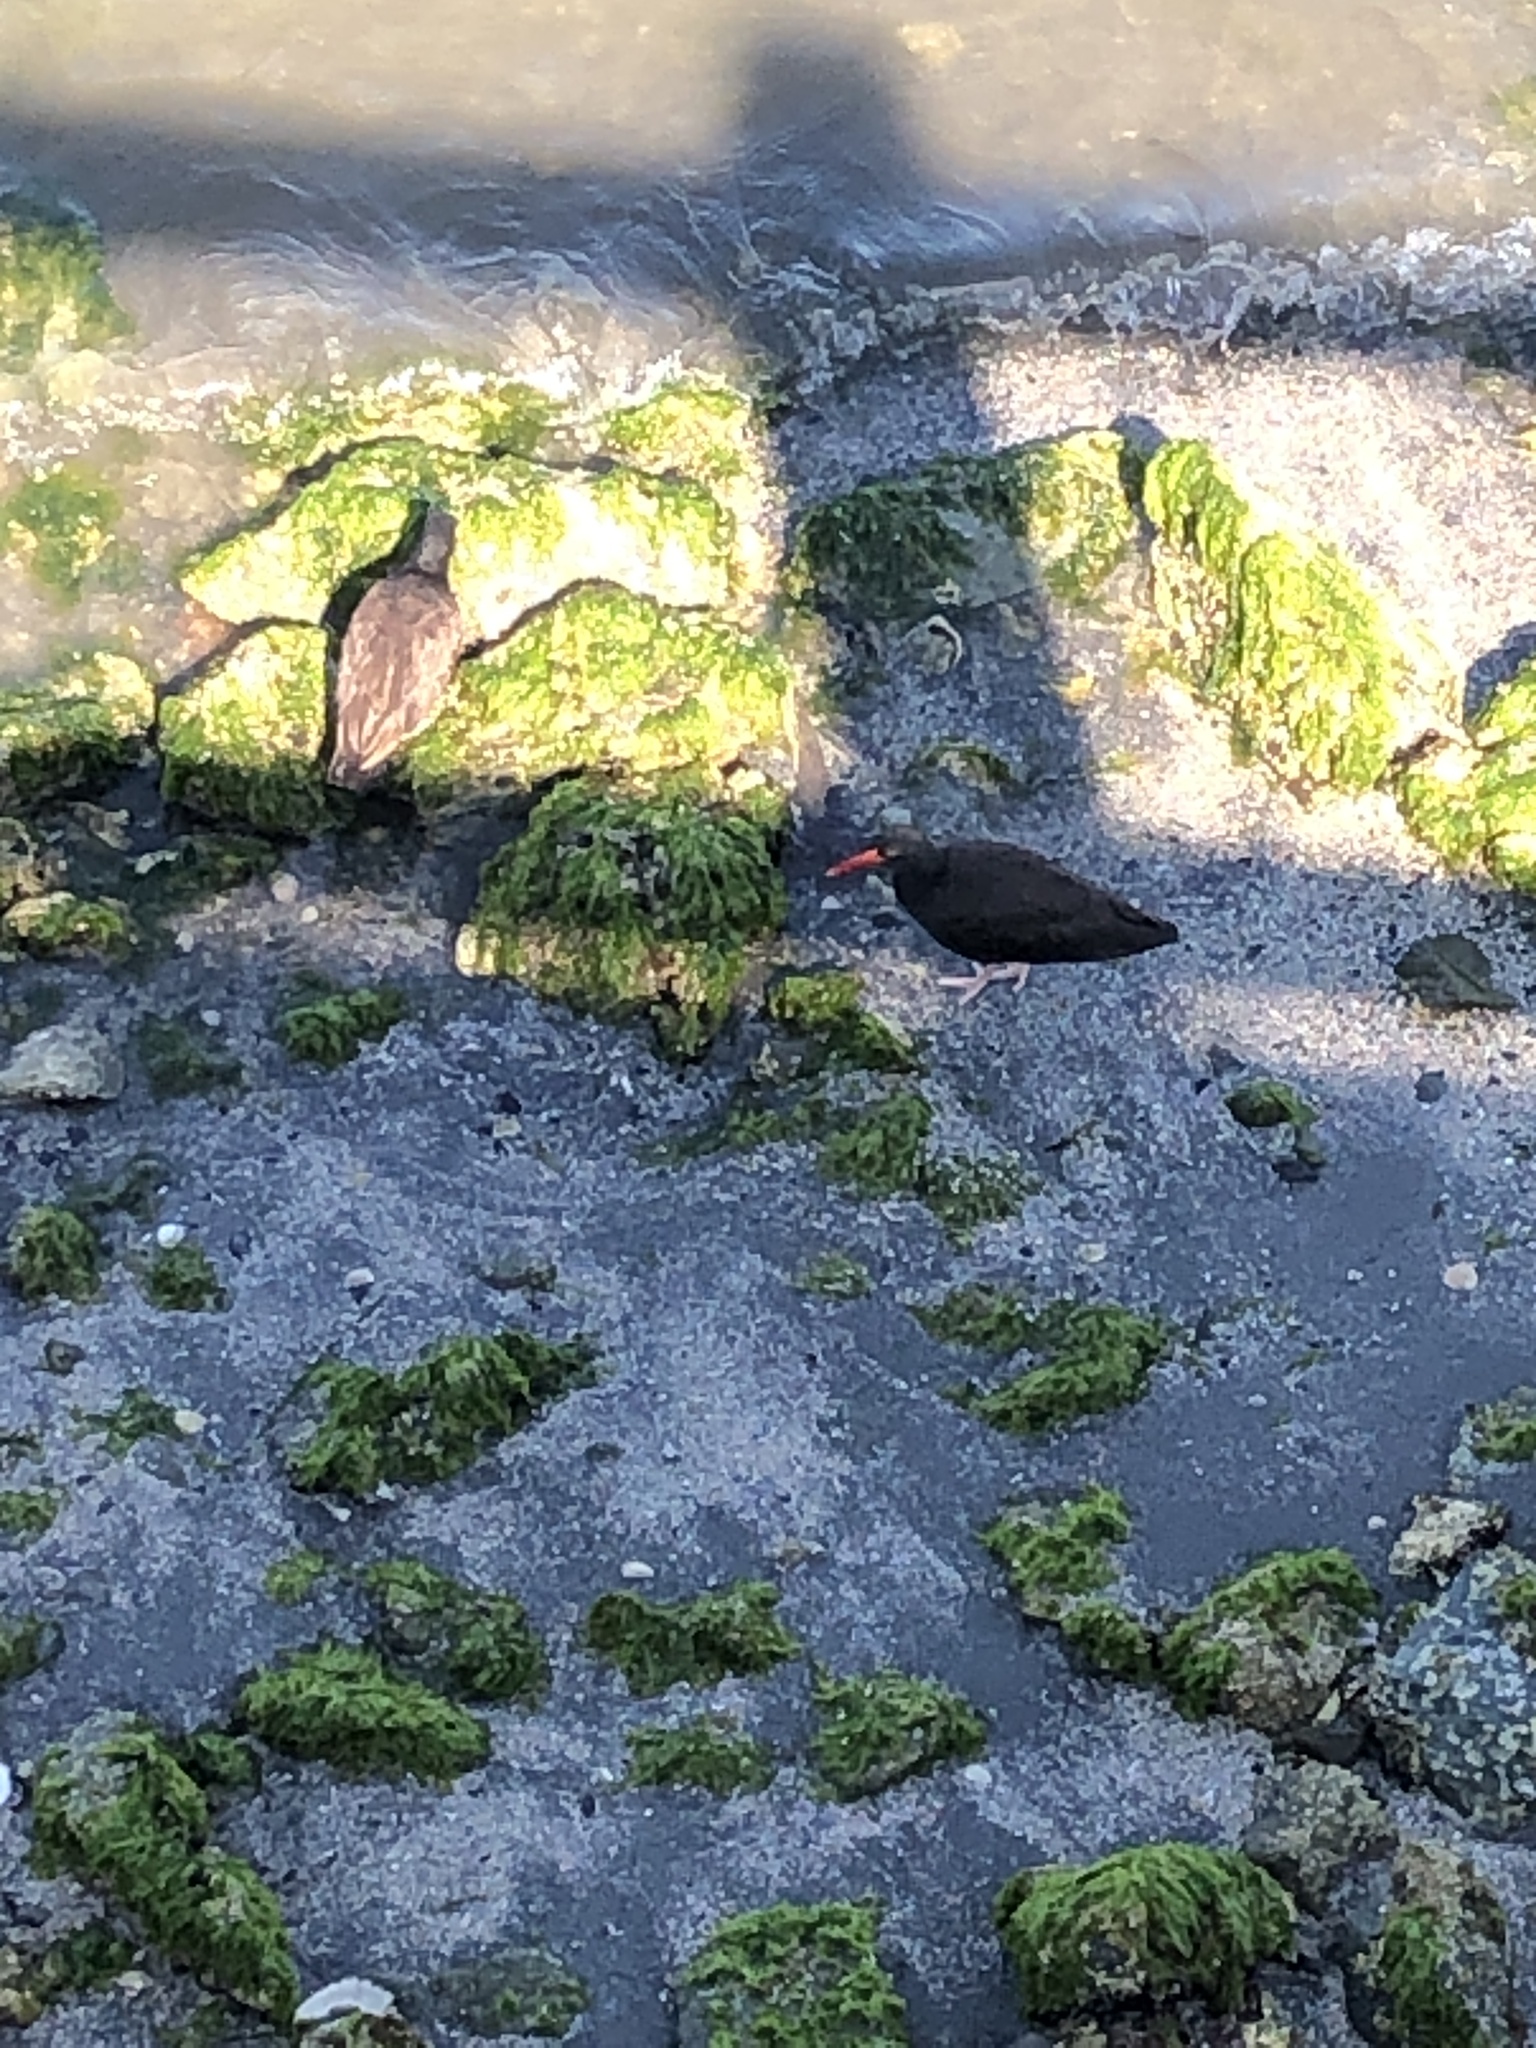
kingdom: Animalia
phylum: Chordata
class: Aves
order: Charadriiformes
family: Haematopodidae
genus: Haematopus
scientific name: Haematopus bachmani
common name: Black oystercatcher
